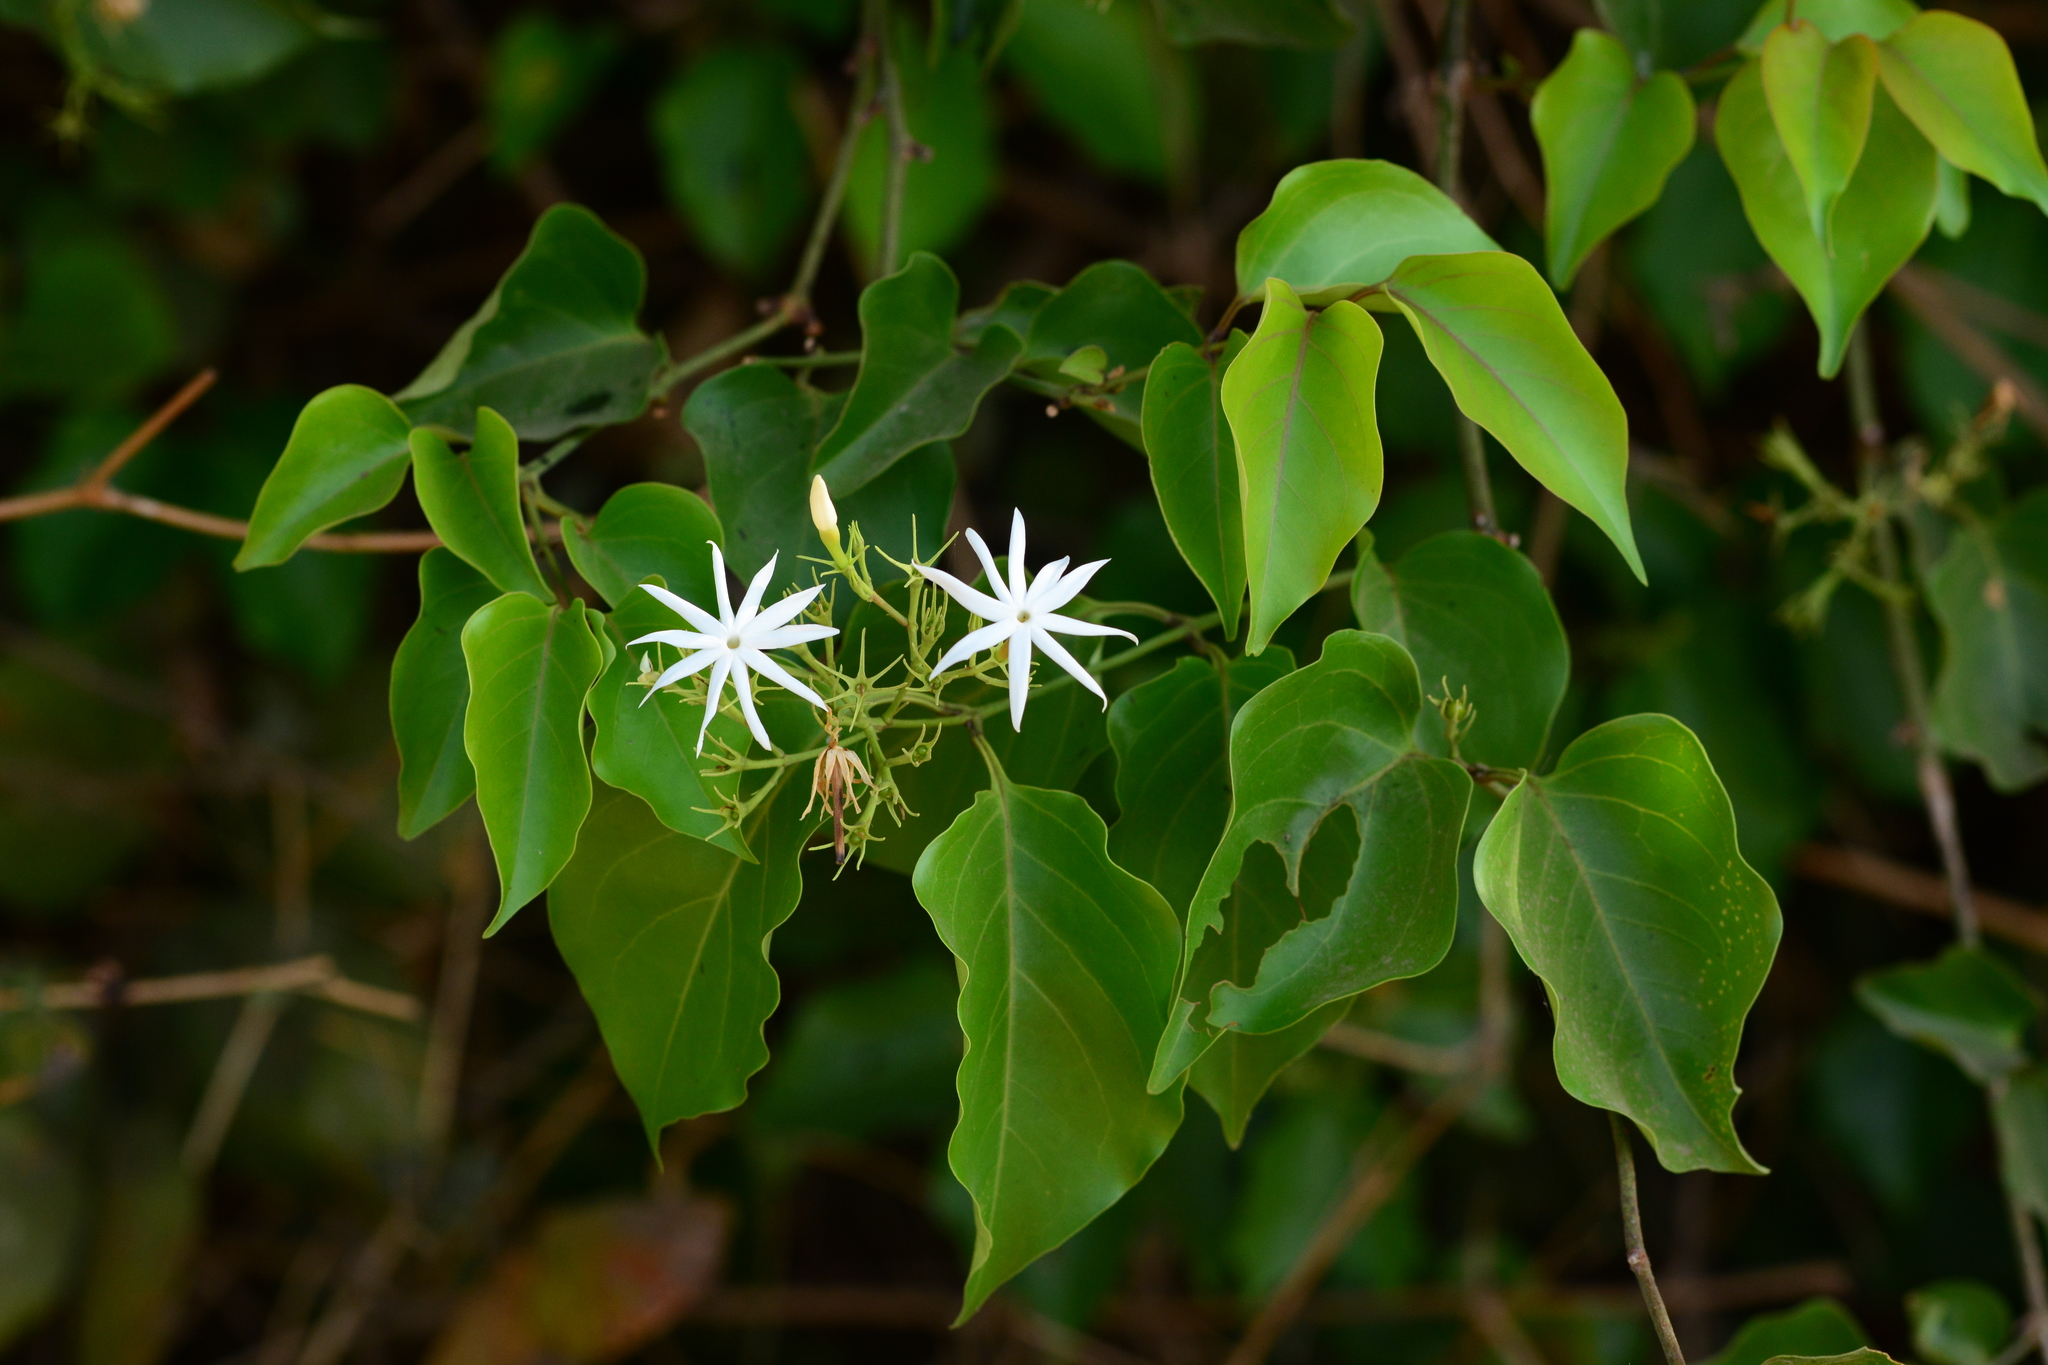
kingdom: Plantae
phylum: Tracheophyta
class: Magnoliopsida
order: Lamiales
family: Oleaceae
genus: Jasminum
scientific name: Jasminum malabaricum
